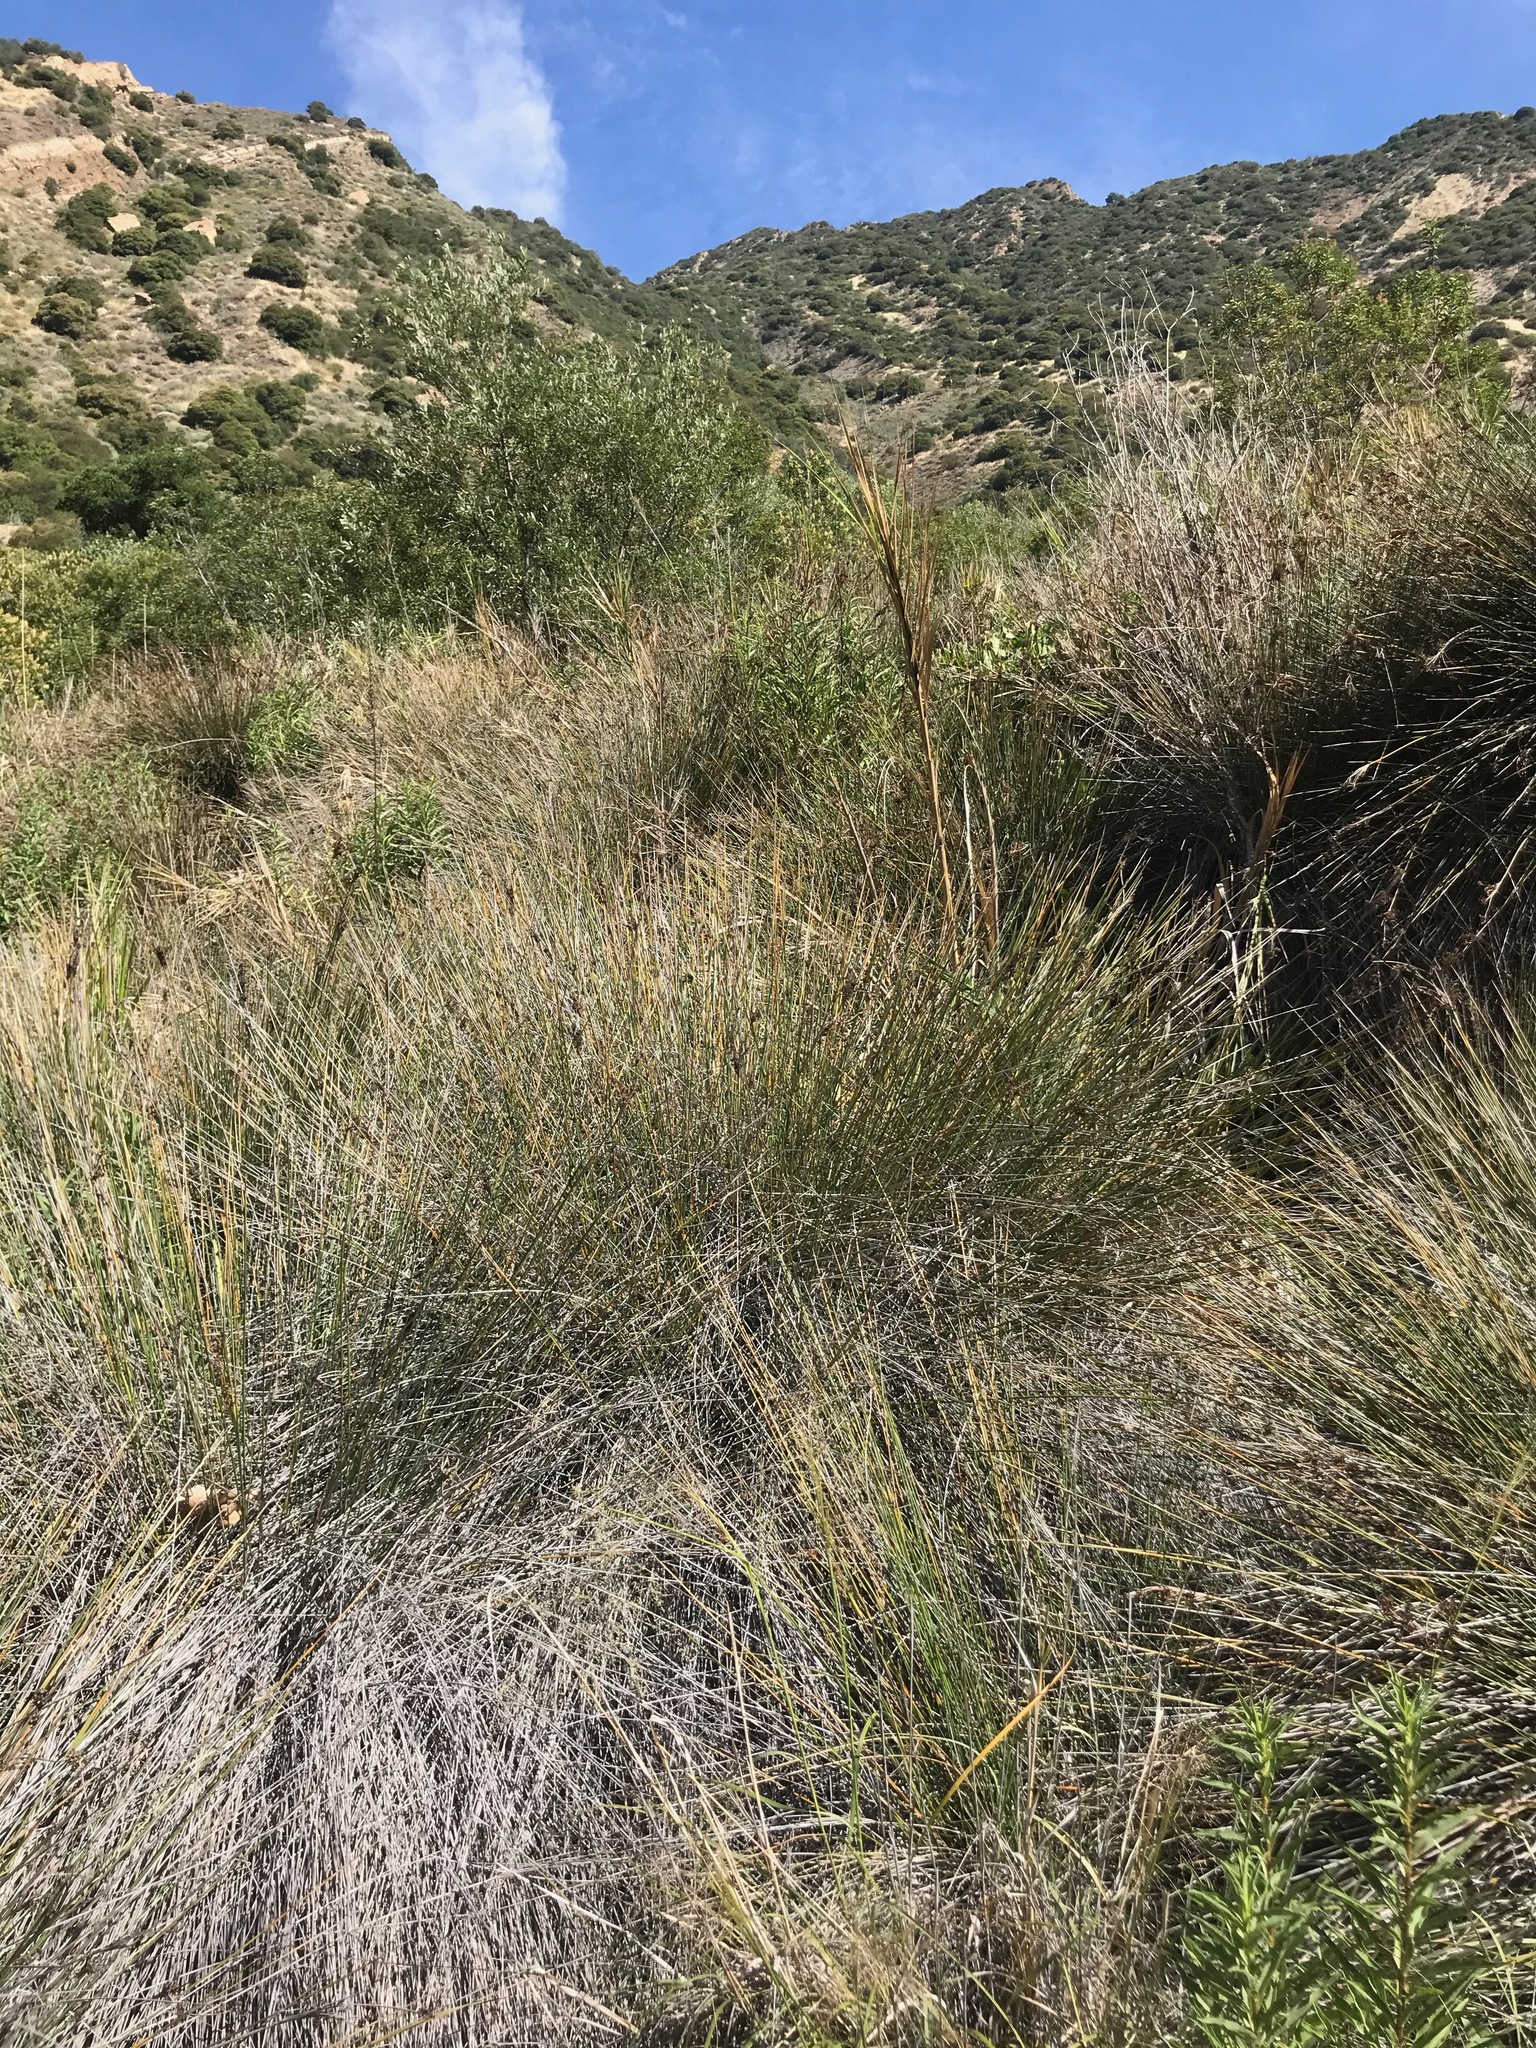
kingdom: Plantae
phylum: Tracheophyta
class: Liliopsida
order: Poales
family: Juncaceae
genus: Juncus
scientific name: Juncus acutus
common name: Sharp rush
